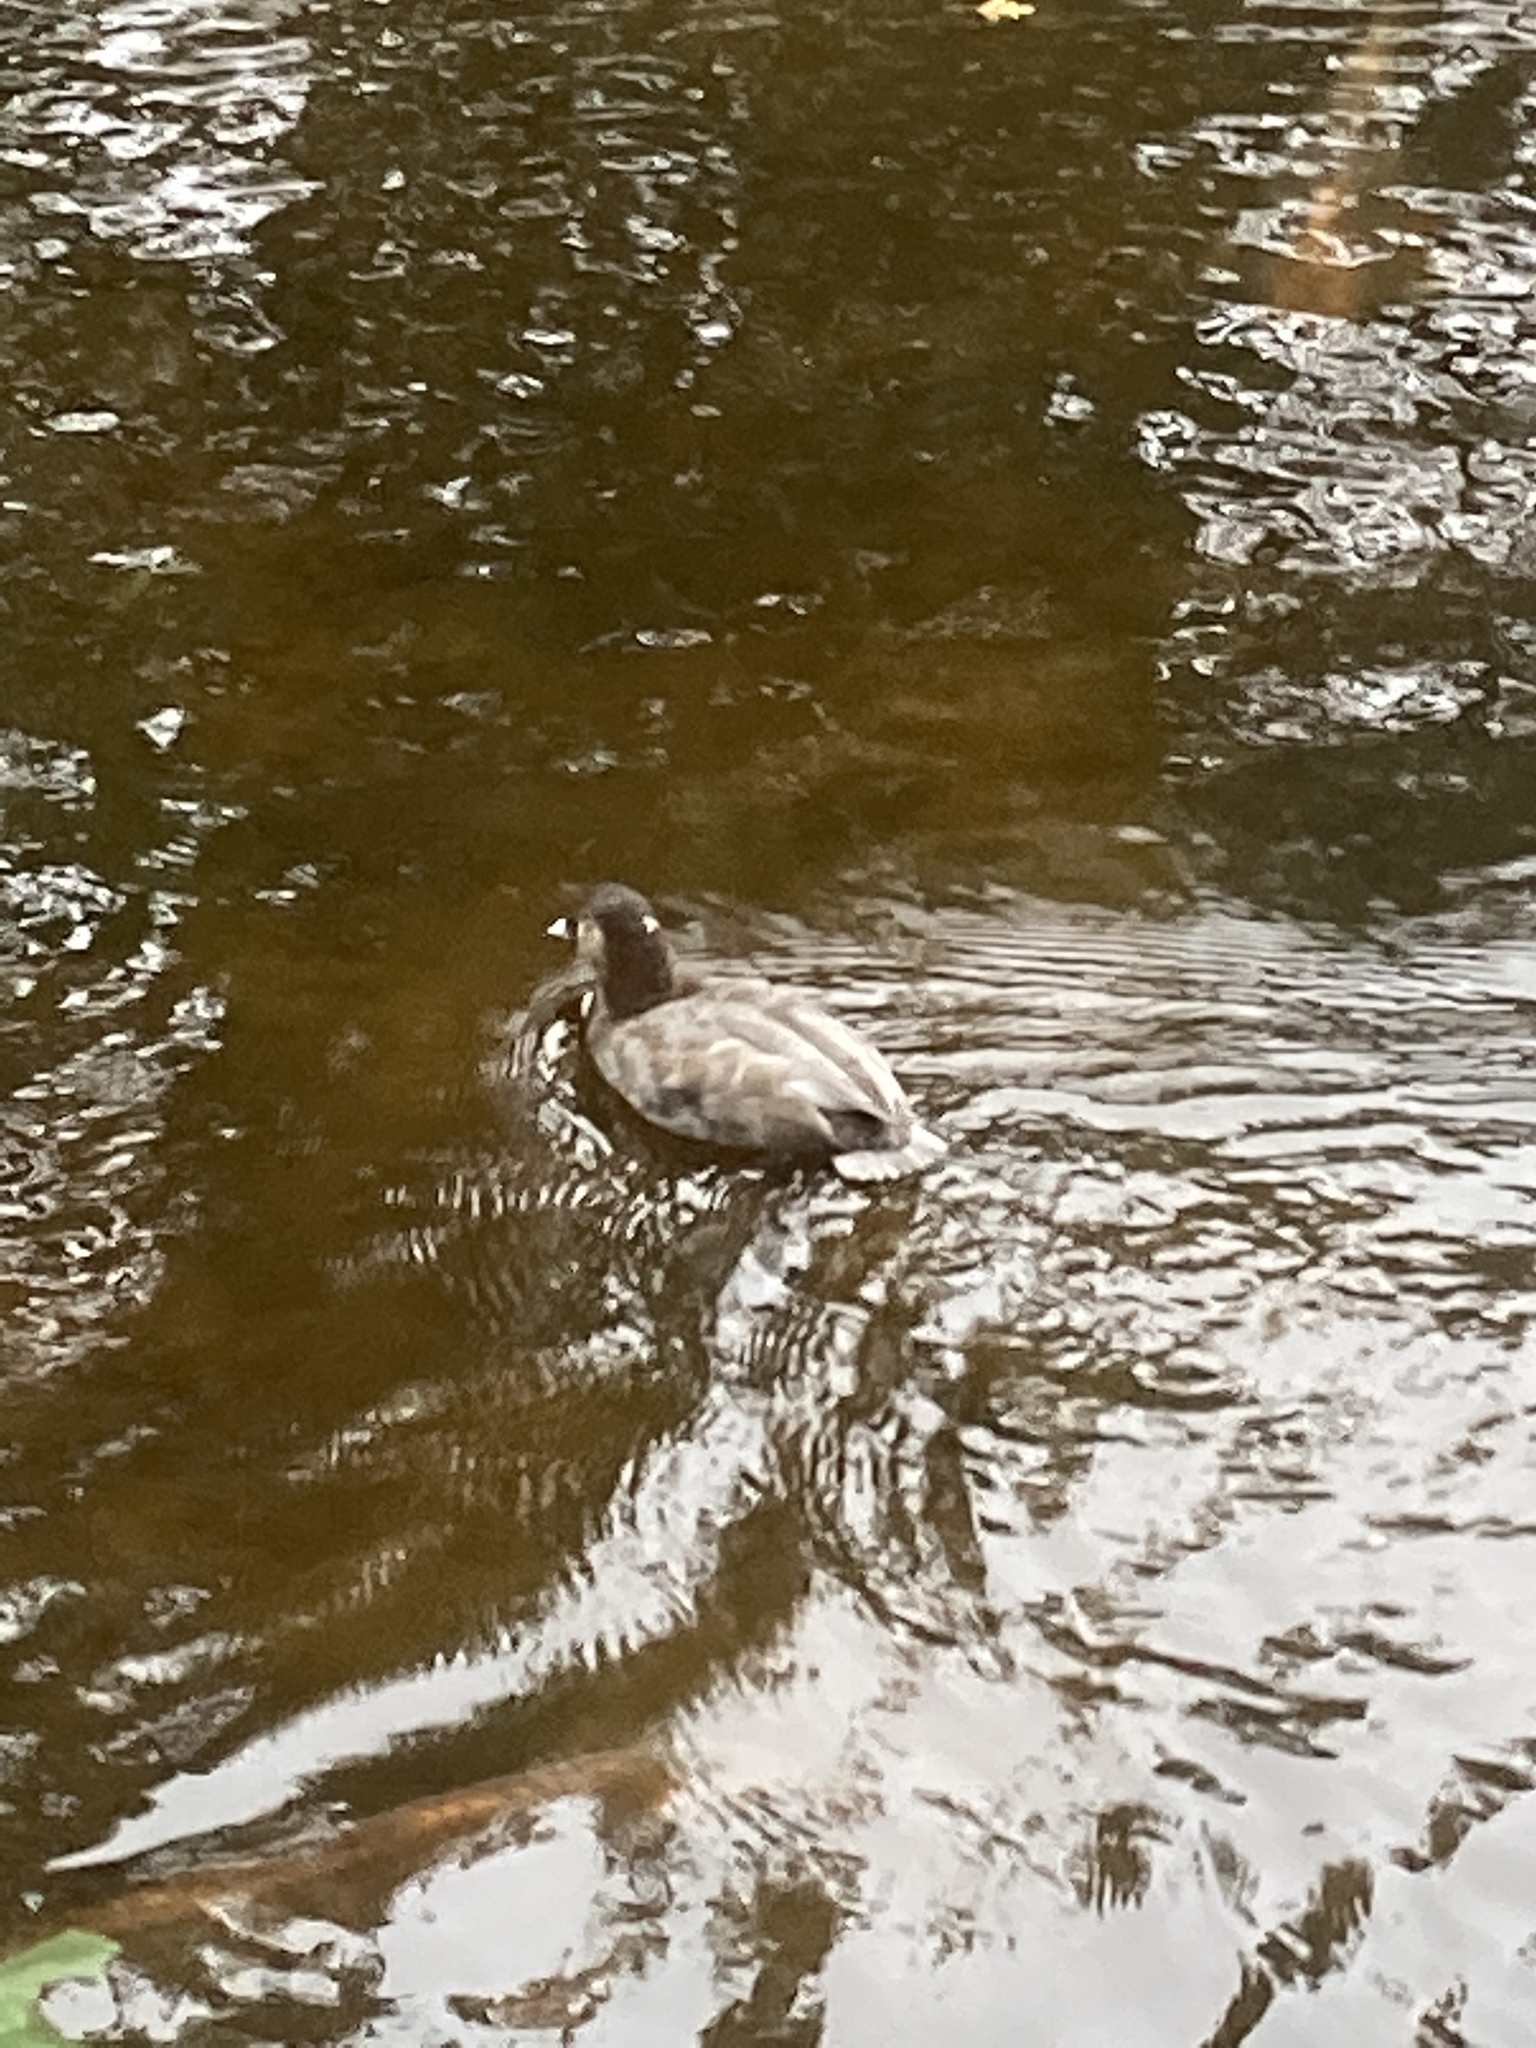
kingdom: Animalia
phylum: Chordata
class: Aves
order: Anseriformes
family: Anatidae
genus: Aythya
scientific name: Aythya ferina
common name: Common pochard
